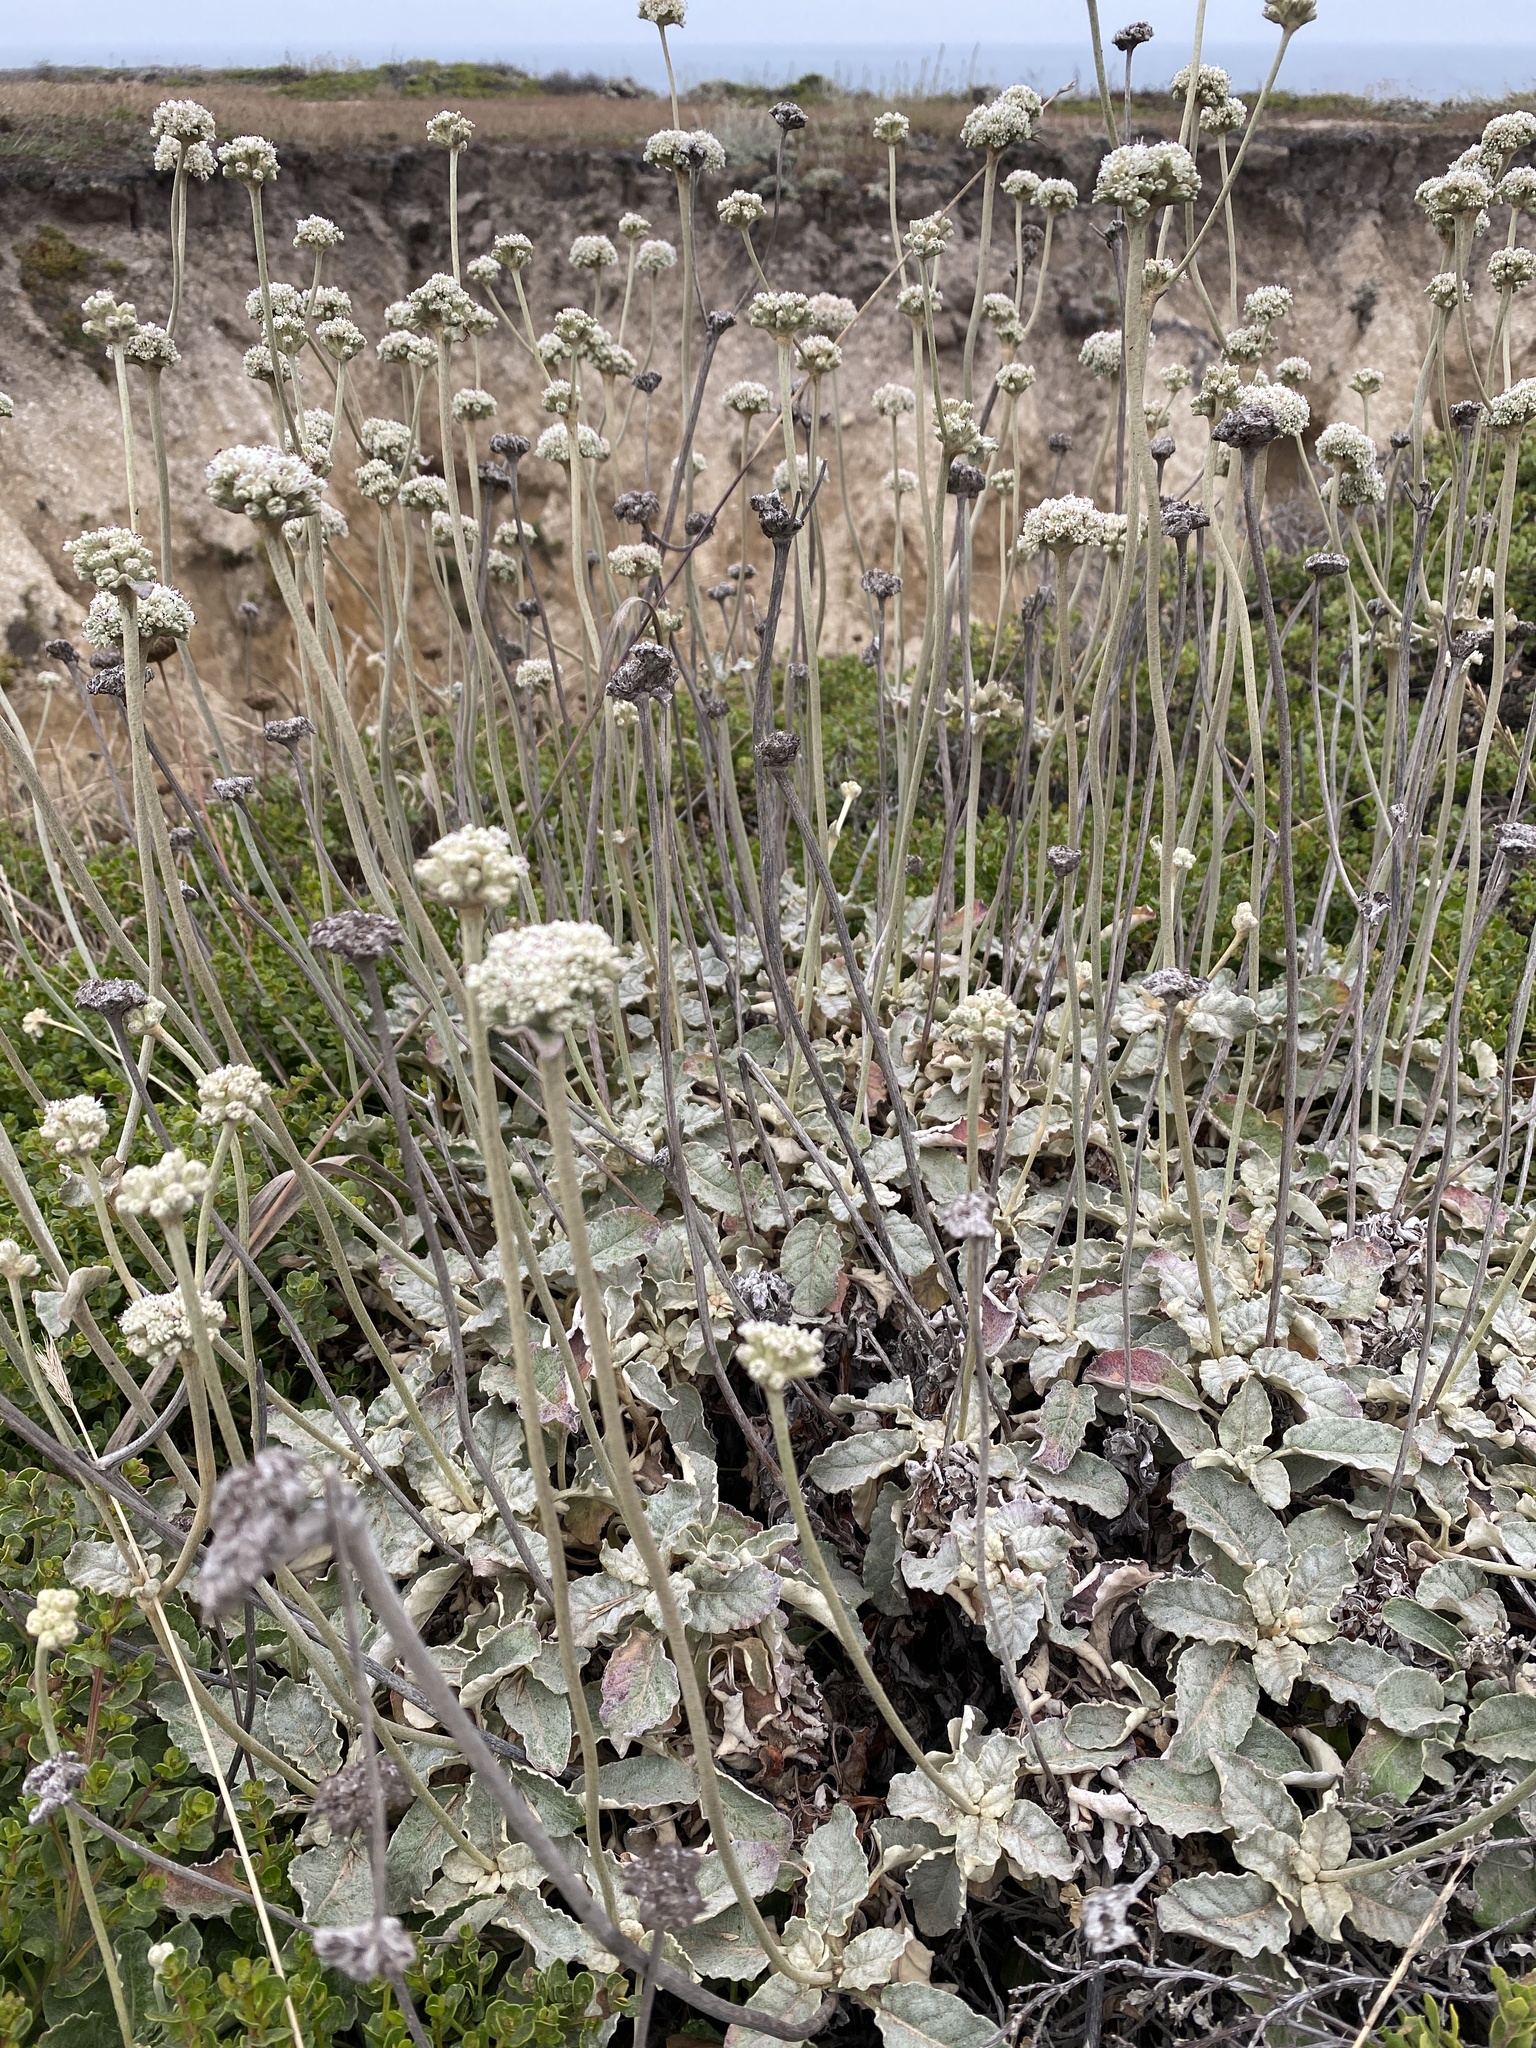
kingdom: Plantae
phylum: Tracheophyta
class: Magnoliopsida
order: Caryophyllales
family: Polygonaceae
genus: Eriogonum
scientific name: Eriogonum latifolium
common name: Seaside wild buckwheat
